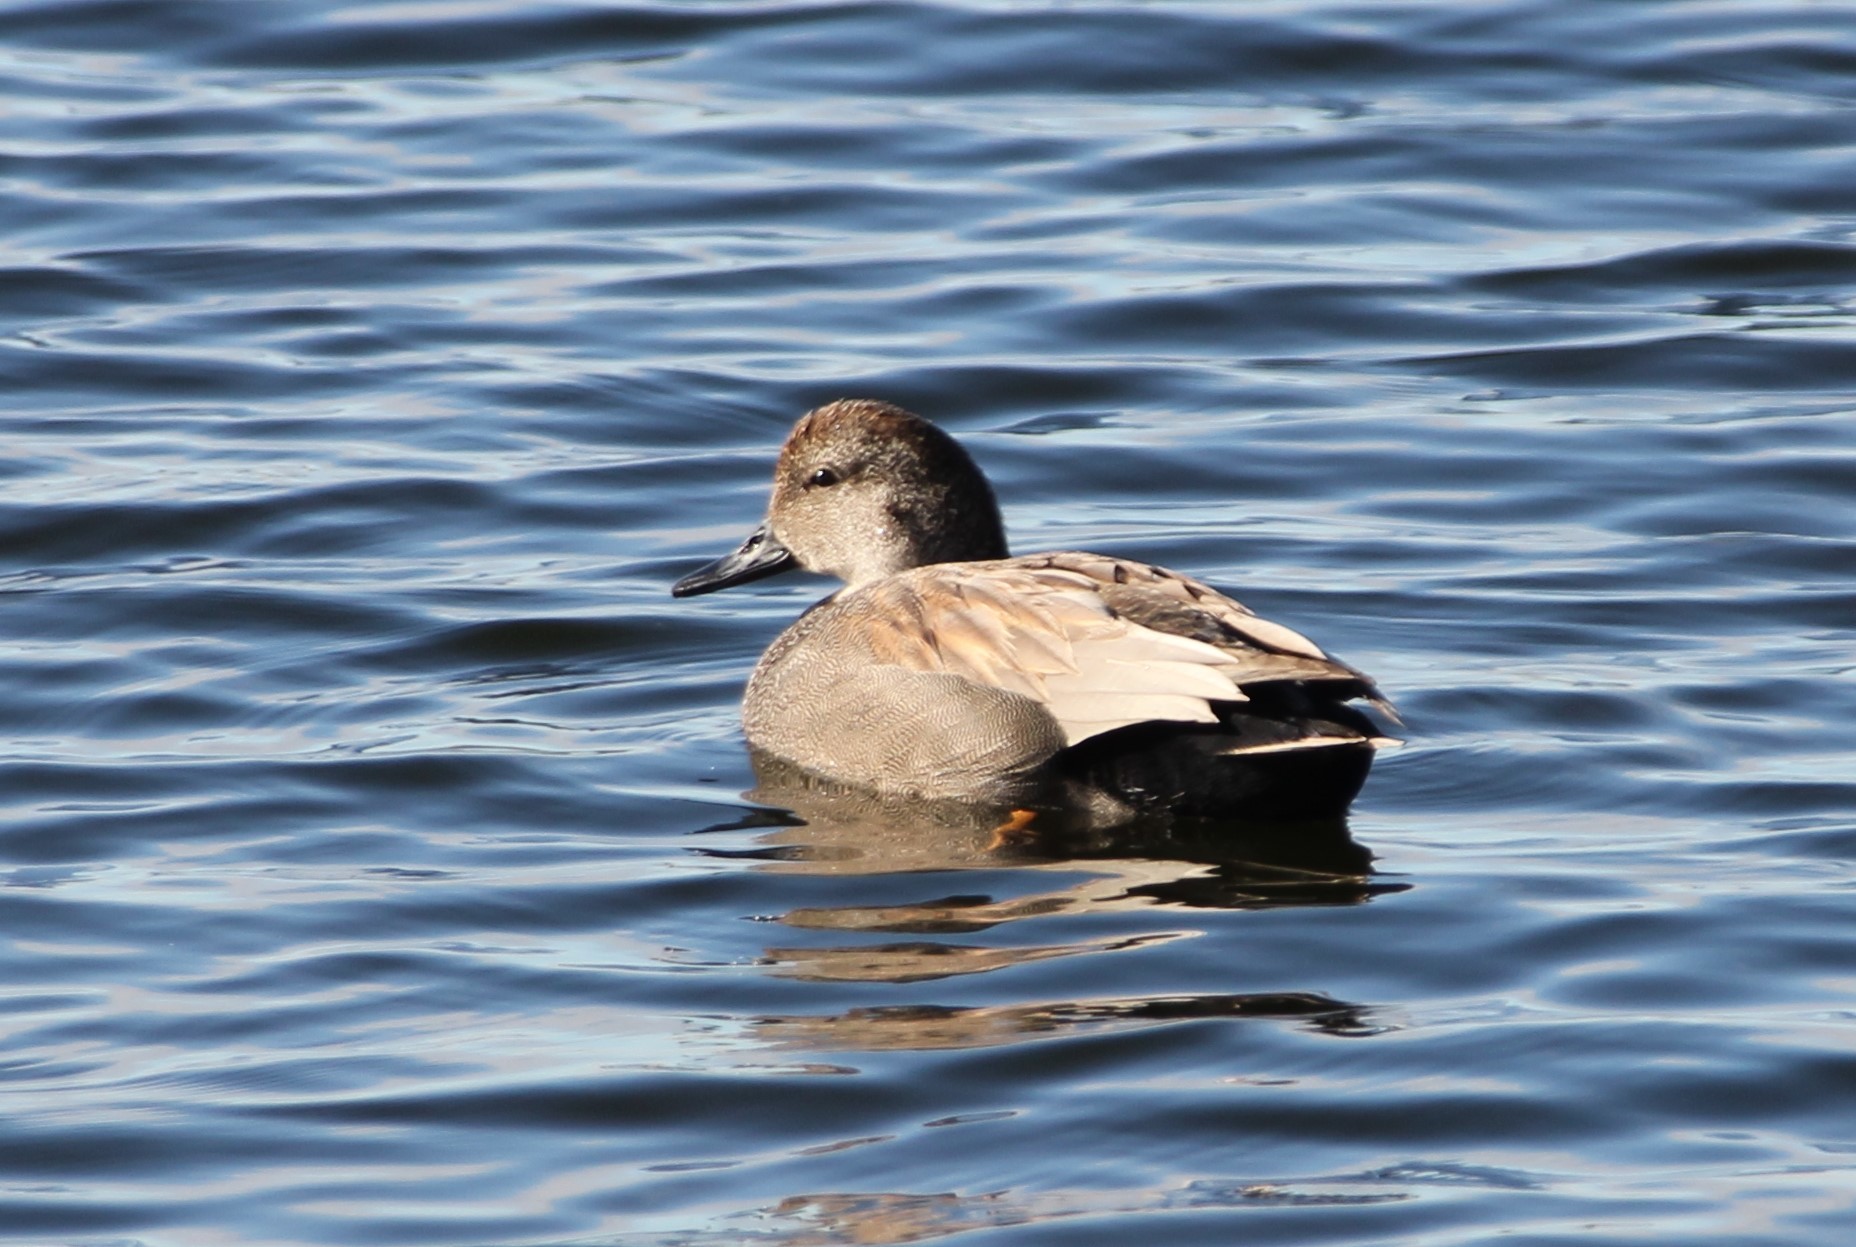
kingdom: Animalia
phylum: Chordata
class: Aves
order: Anseriformes
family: Anatidae
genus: Mareca
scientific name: Mareca strepera
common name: Gadwall
